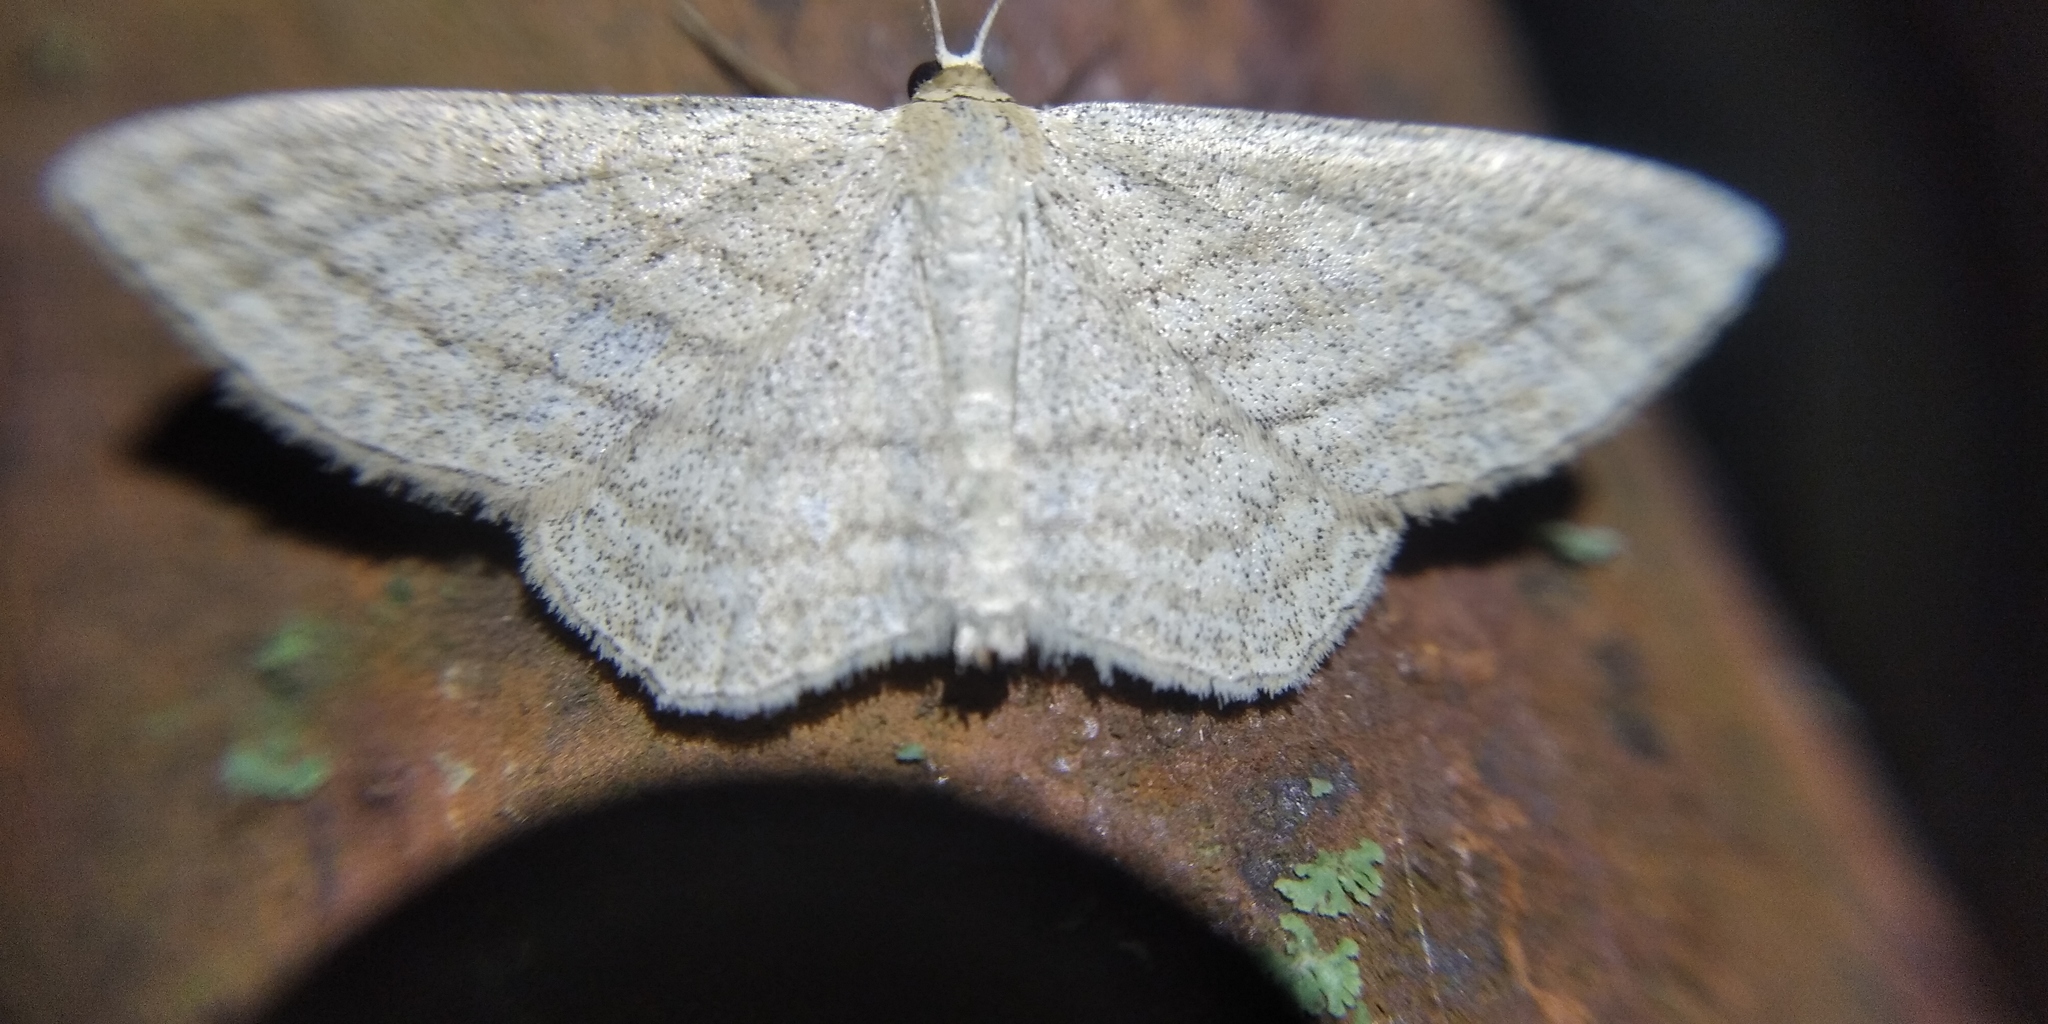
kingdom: Animalia
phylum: Arthropoda
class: Insecta
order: Lepidoptera
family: Geometridae
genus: Scopula
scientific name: Scopula virgulata
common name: Streaked wave
